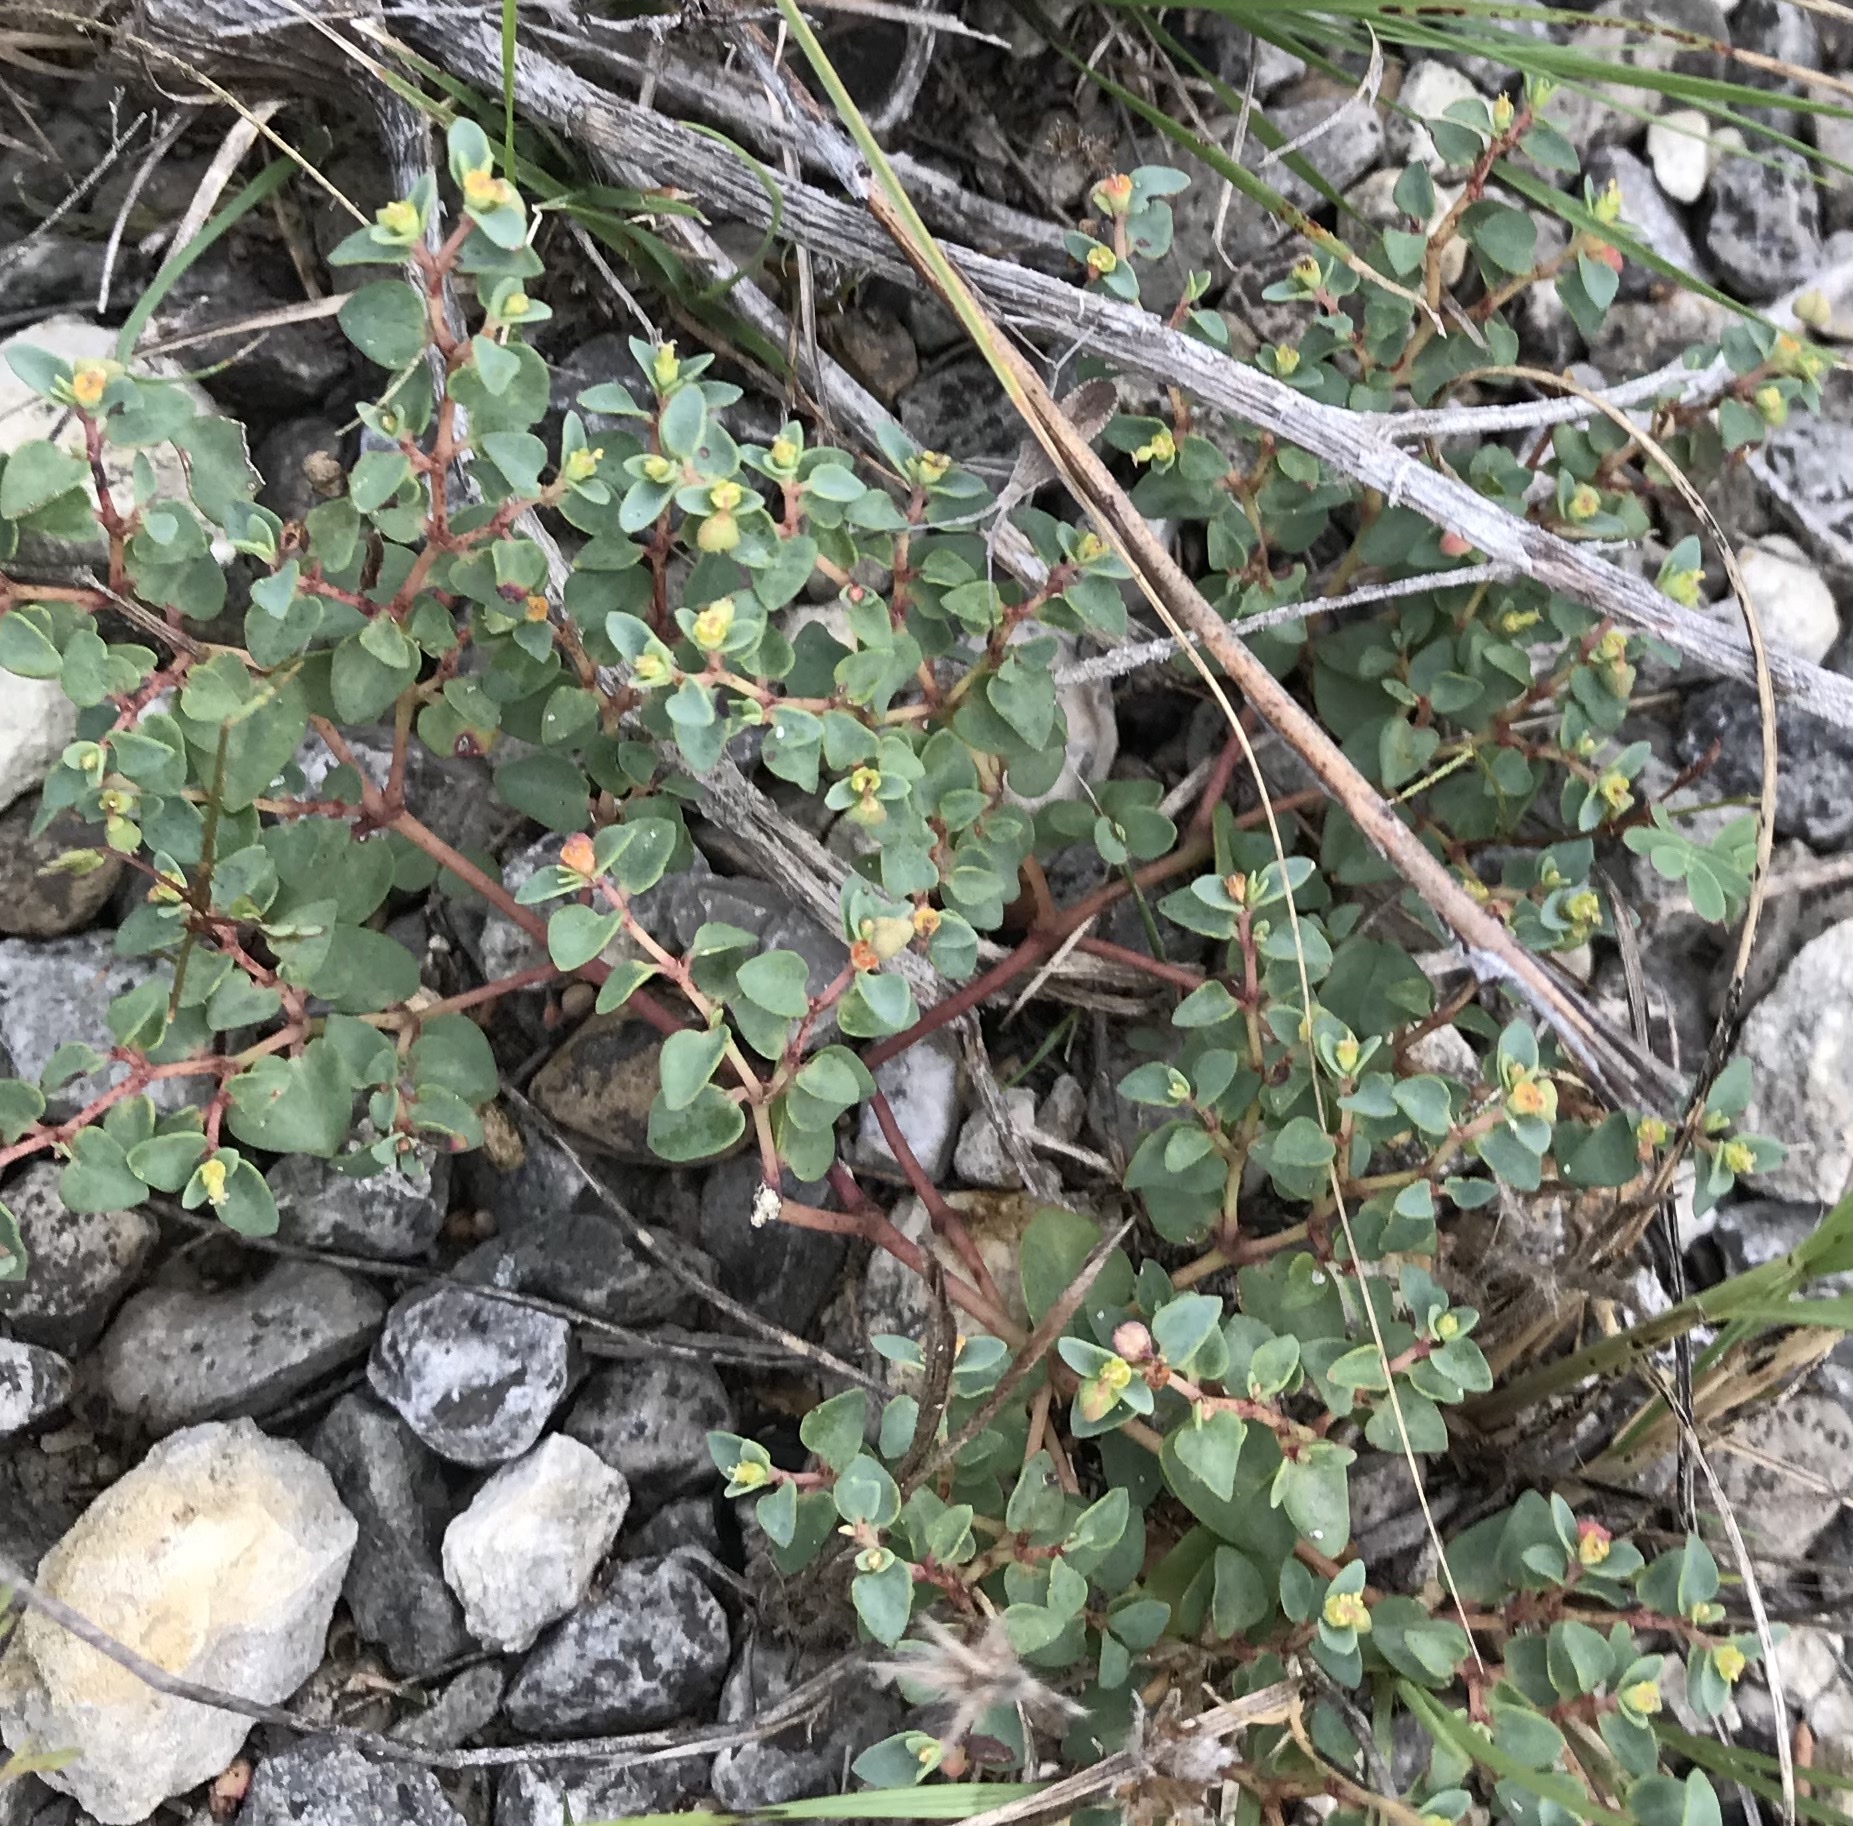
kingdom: Plantae
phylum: Tracheophyta
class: Magnoliopsida
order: Malpighiales
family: Euphorbiaceae
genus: Euphorbia
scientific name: Euphorbia fendleri
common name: Fendler's euphorbia
